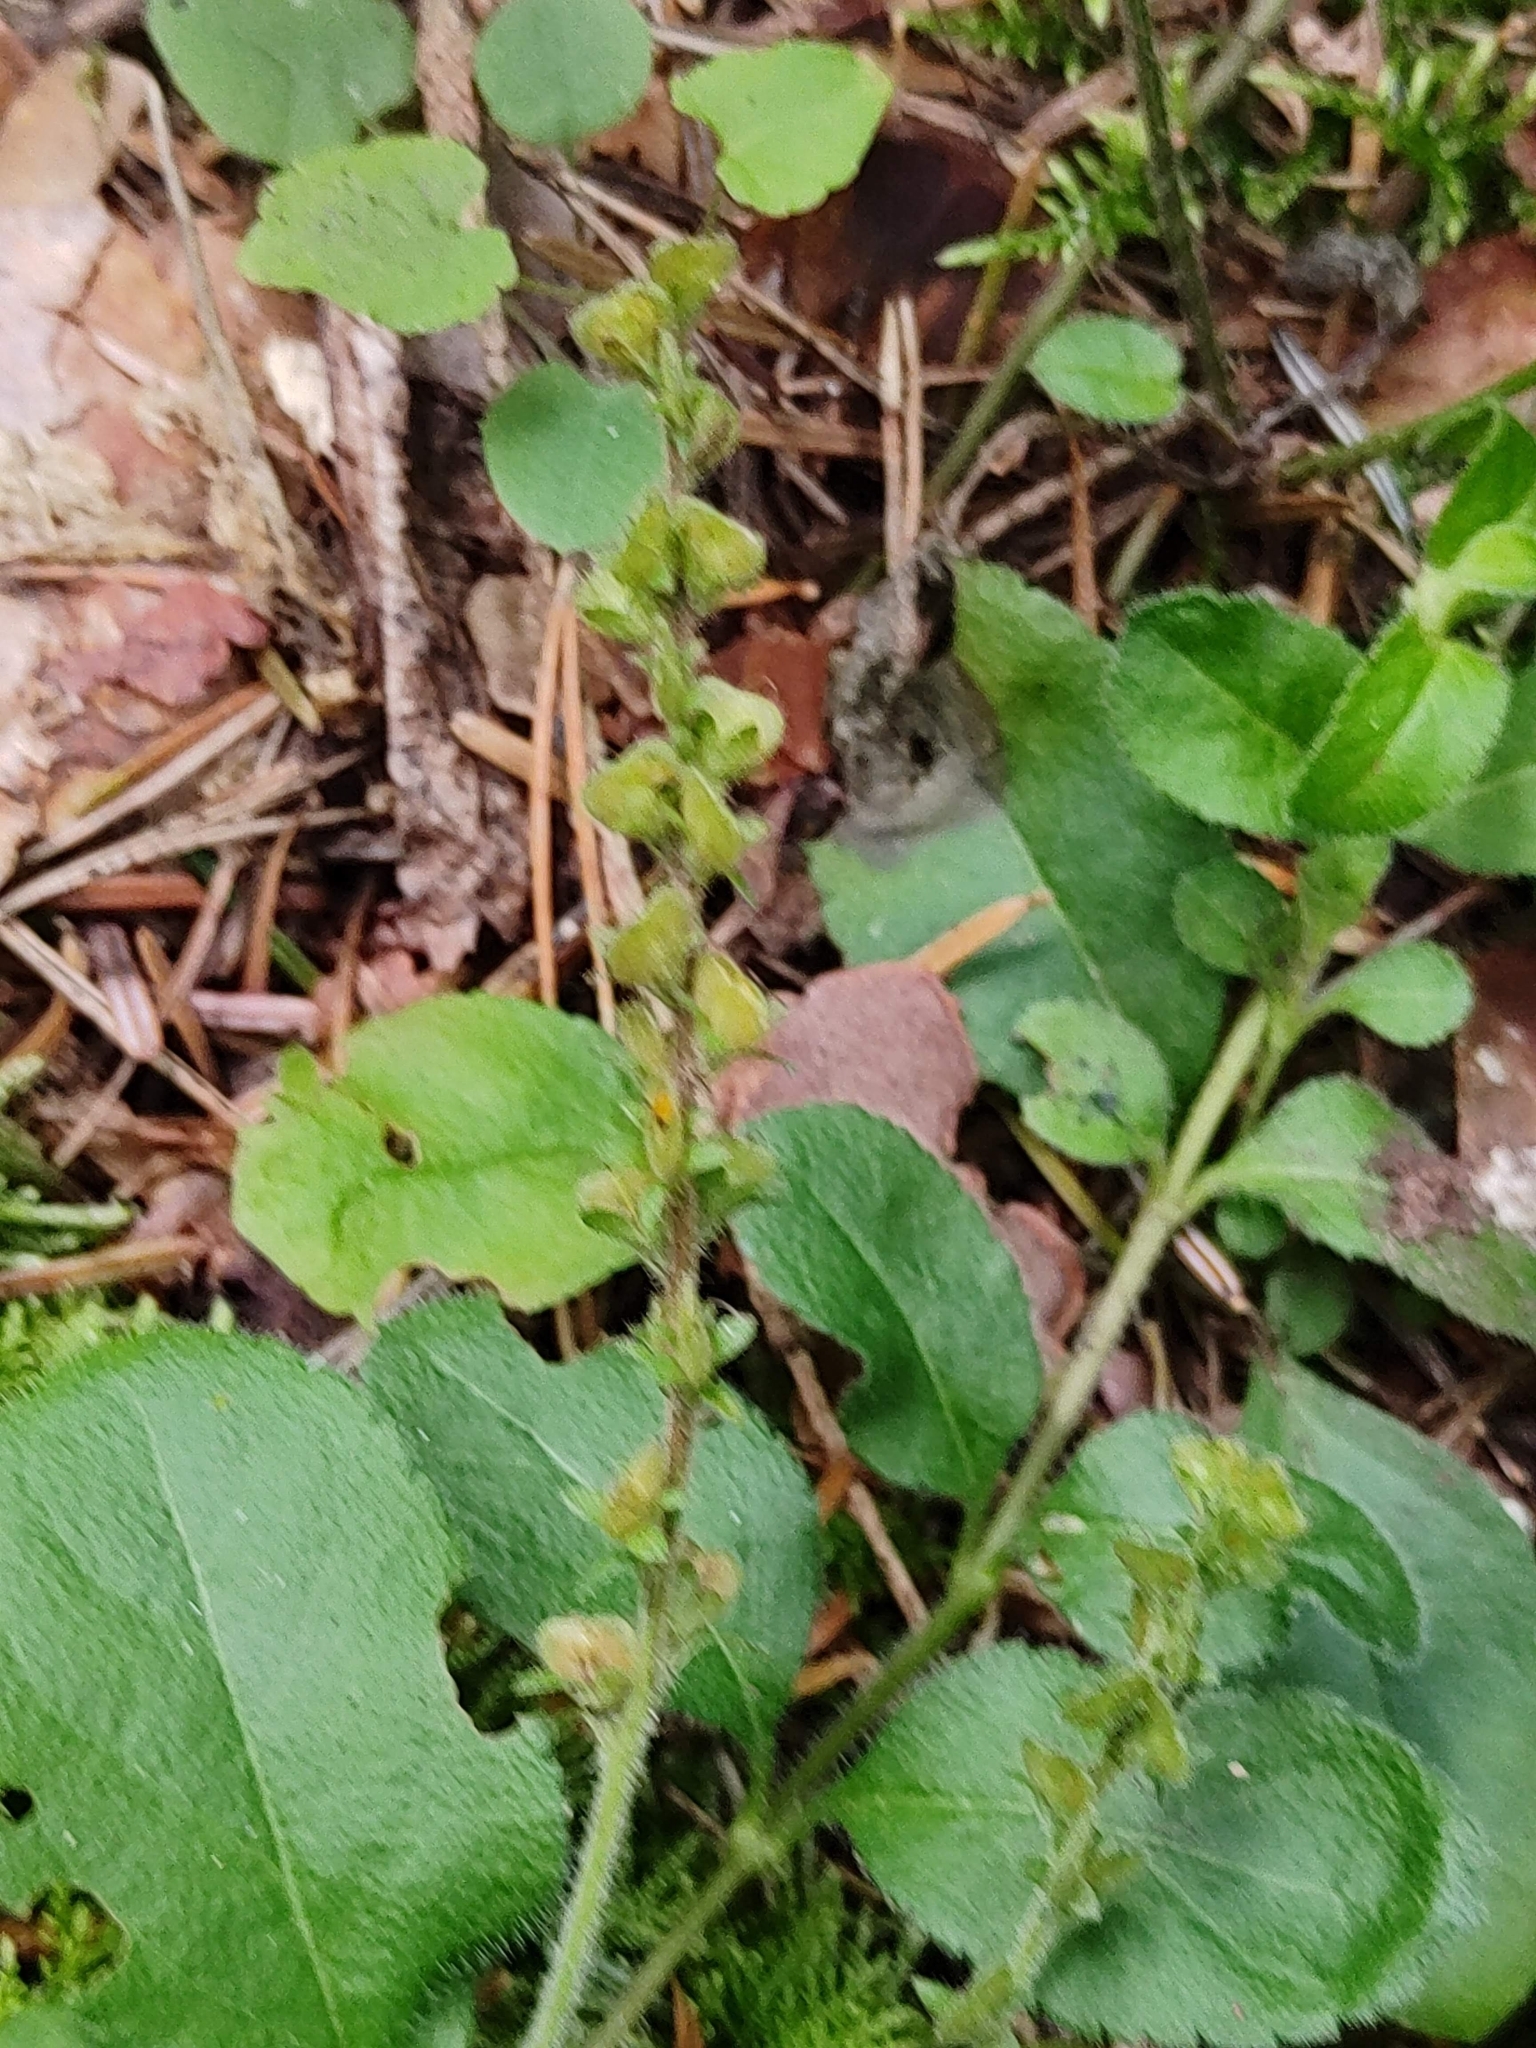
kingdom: Plantae
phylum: Tracheophyta
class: Magnoliopsida
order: Lamiales
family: Plantaginaceae
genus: Veronica
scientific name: Veronica officinalis
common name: Common speedwell
